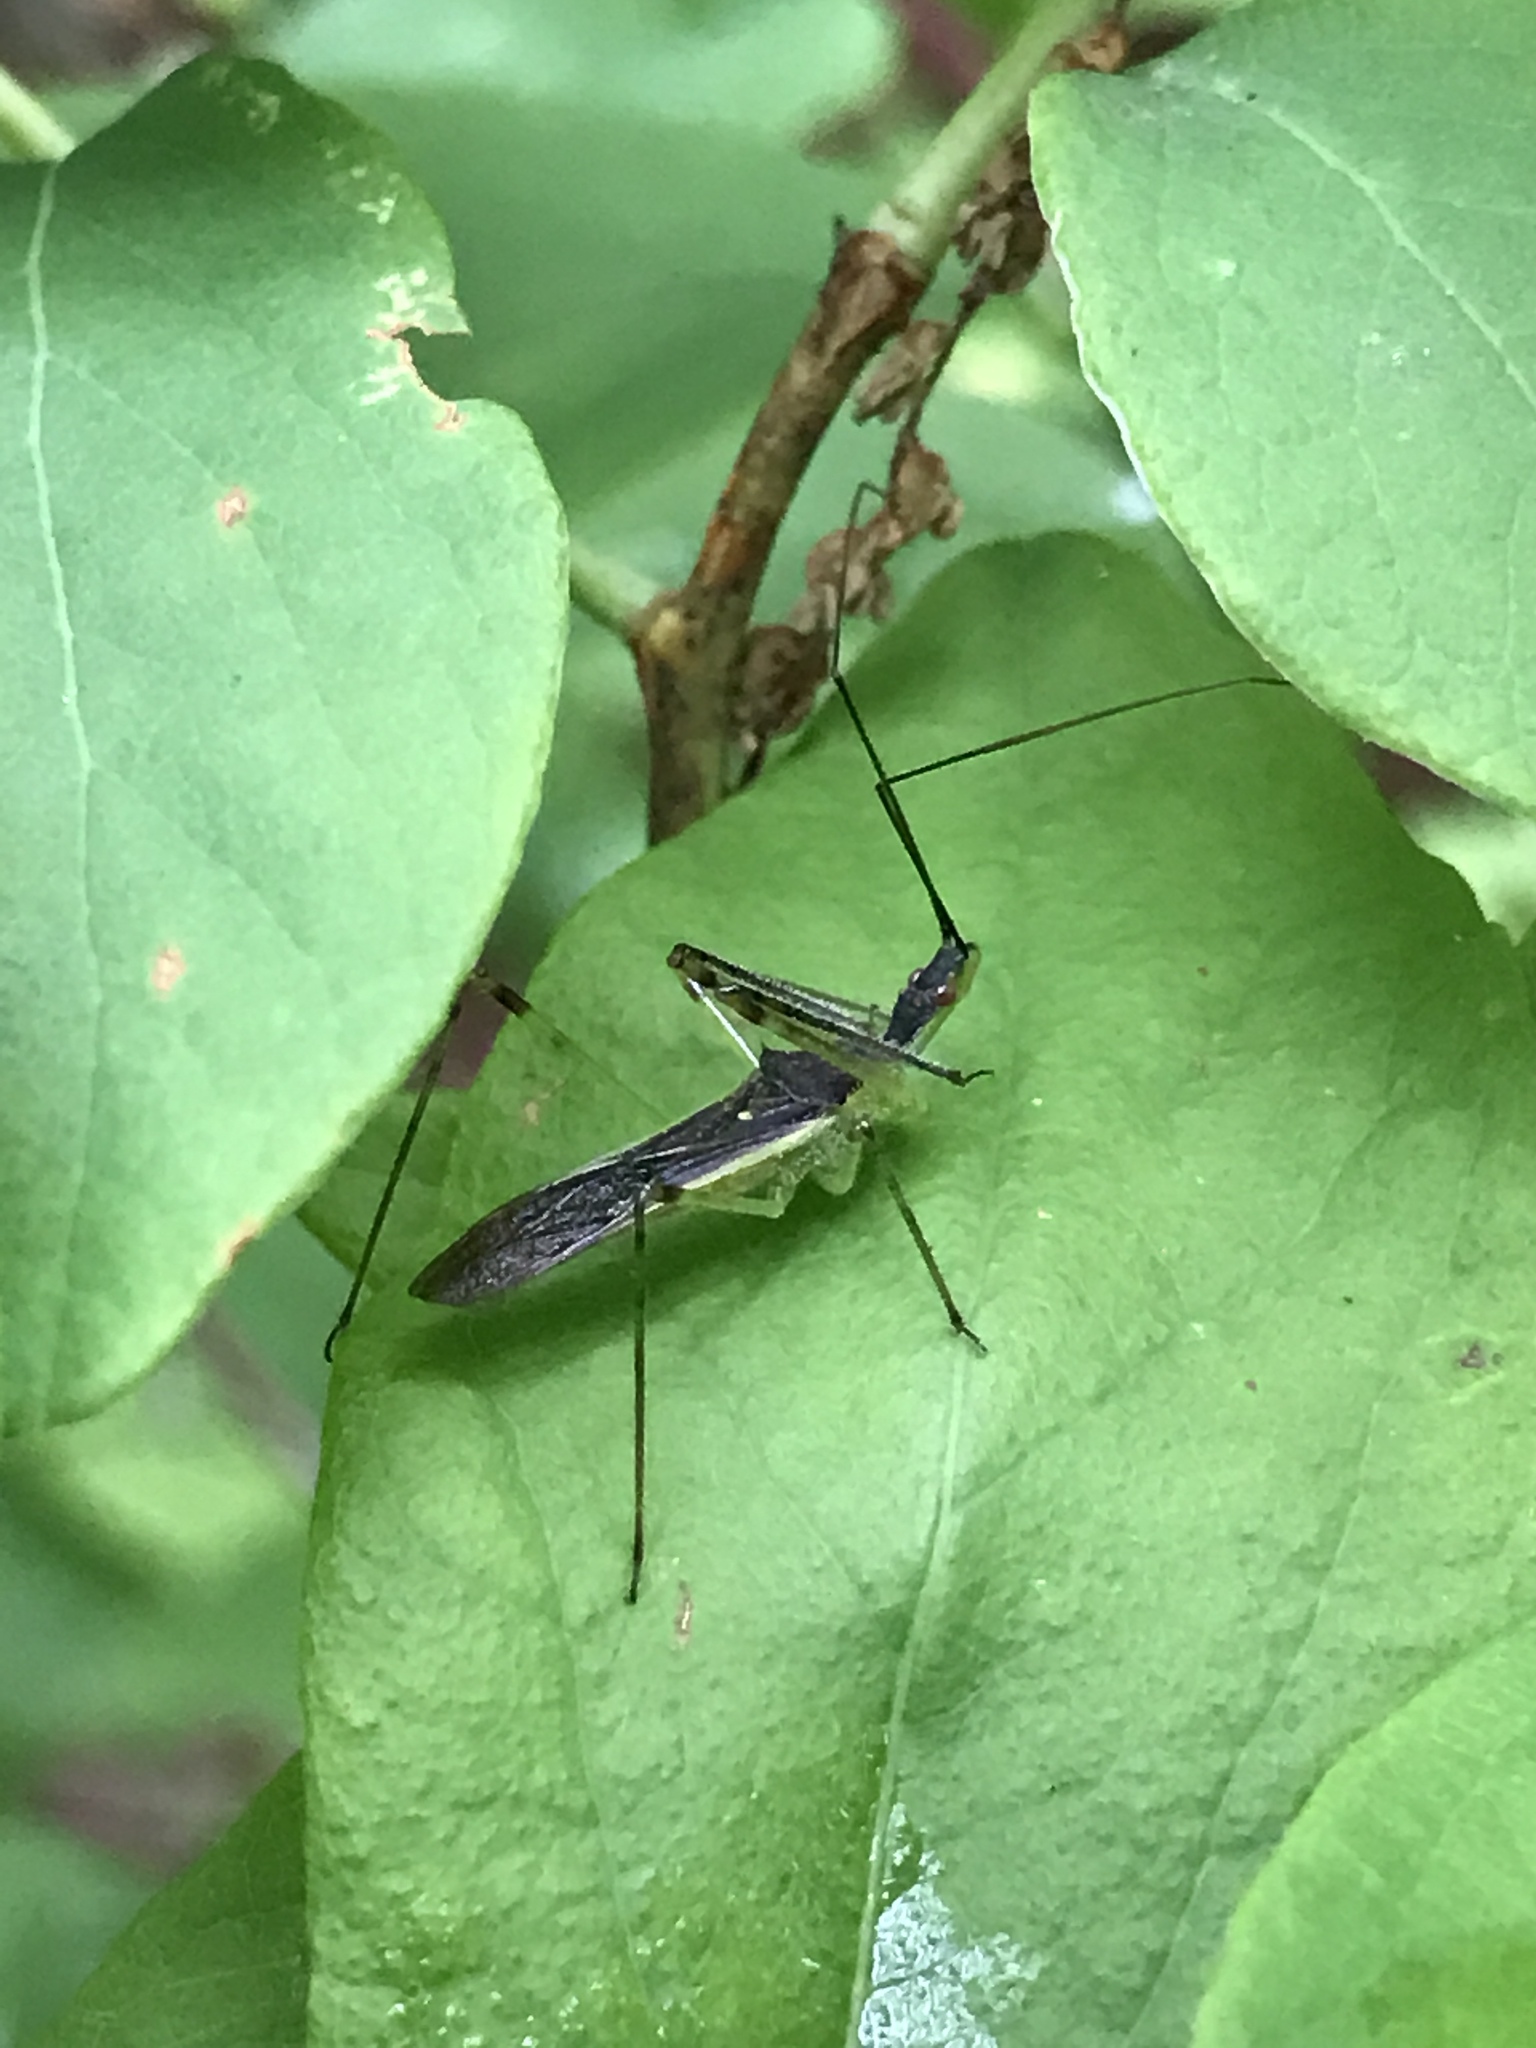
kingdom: Animalia
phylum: Arthropoda
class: Insecta
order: Hemiptera
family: Reduviidae
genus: Zelus
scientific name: Zelus luridus
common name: Pale green assassin bug
